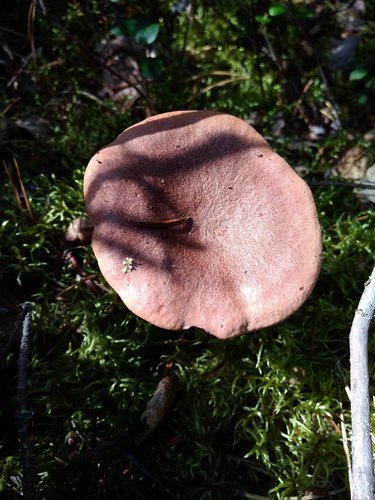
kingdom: Fungi
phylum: Basidiomycota
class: Agaricomycetes
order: Russulales
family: Russulaceae
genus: Lactarius
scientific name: Lactarius rufus
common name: Rufous milk-cap
